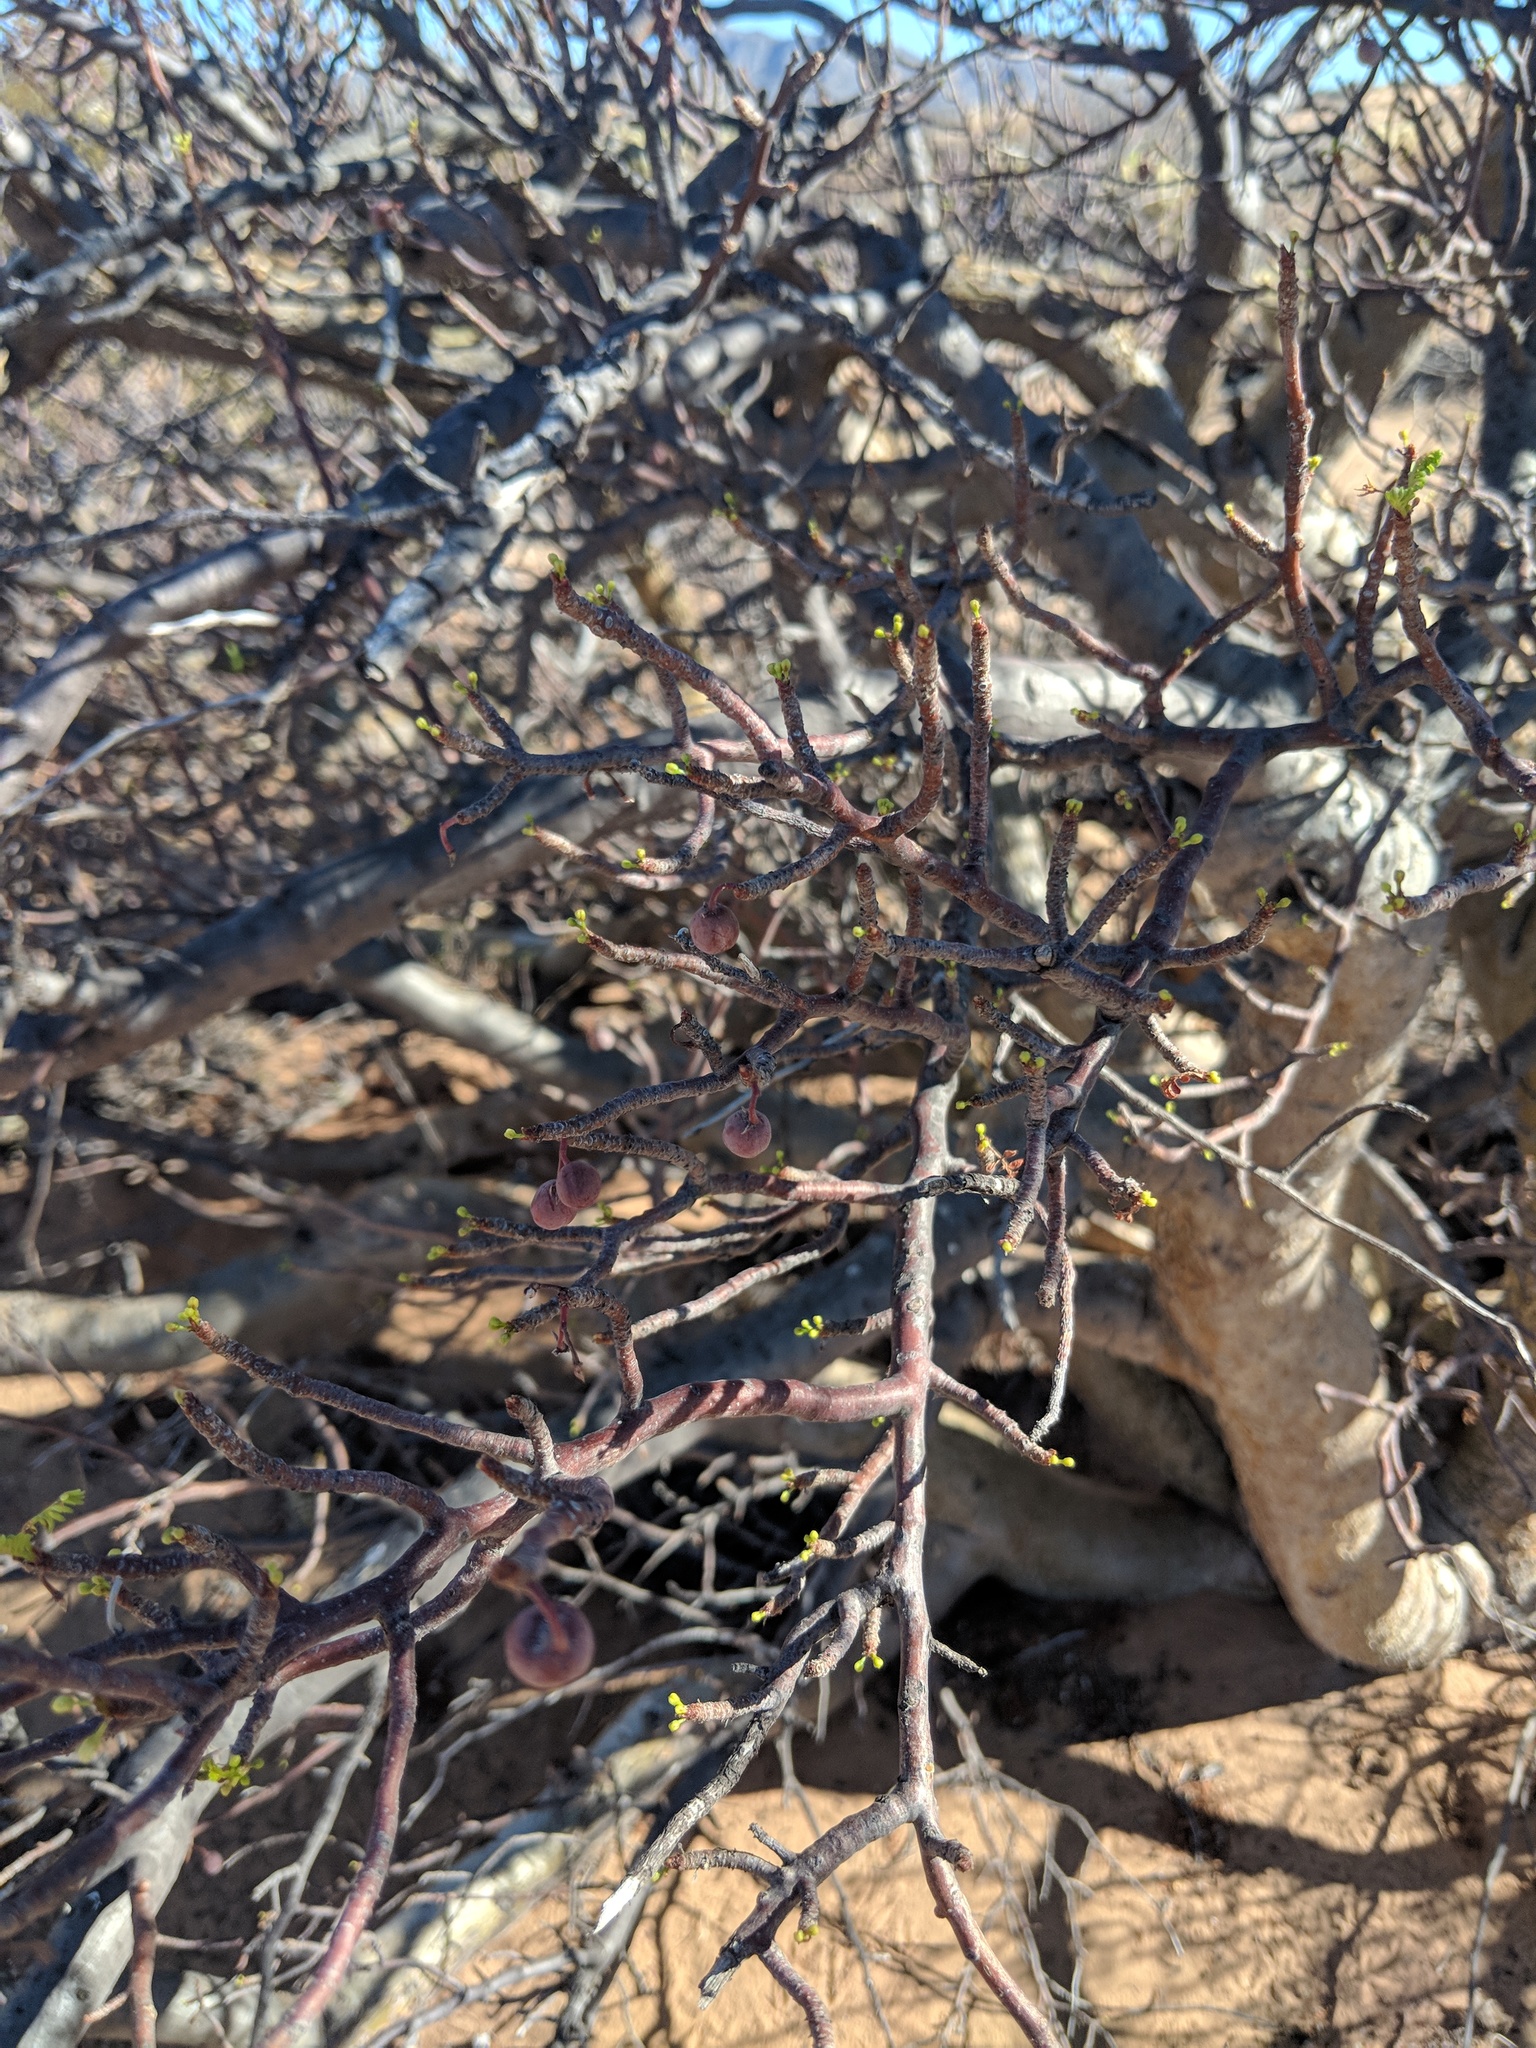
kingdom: Plantae
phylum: Tracheophyta
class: Magnoliopsida
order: Sapindales
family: Burseraceae
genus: Bursera
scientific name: Bursera microphylla
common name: Elephant tree
